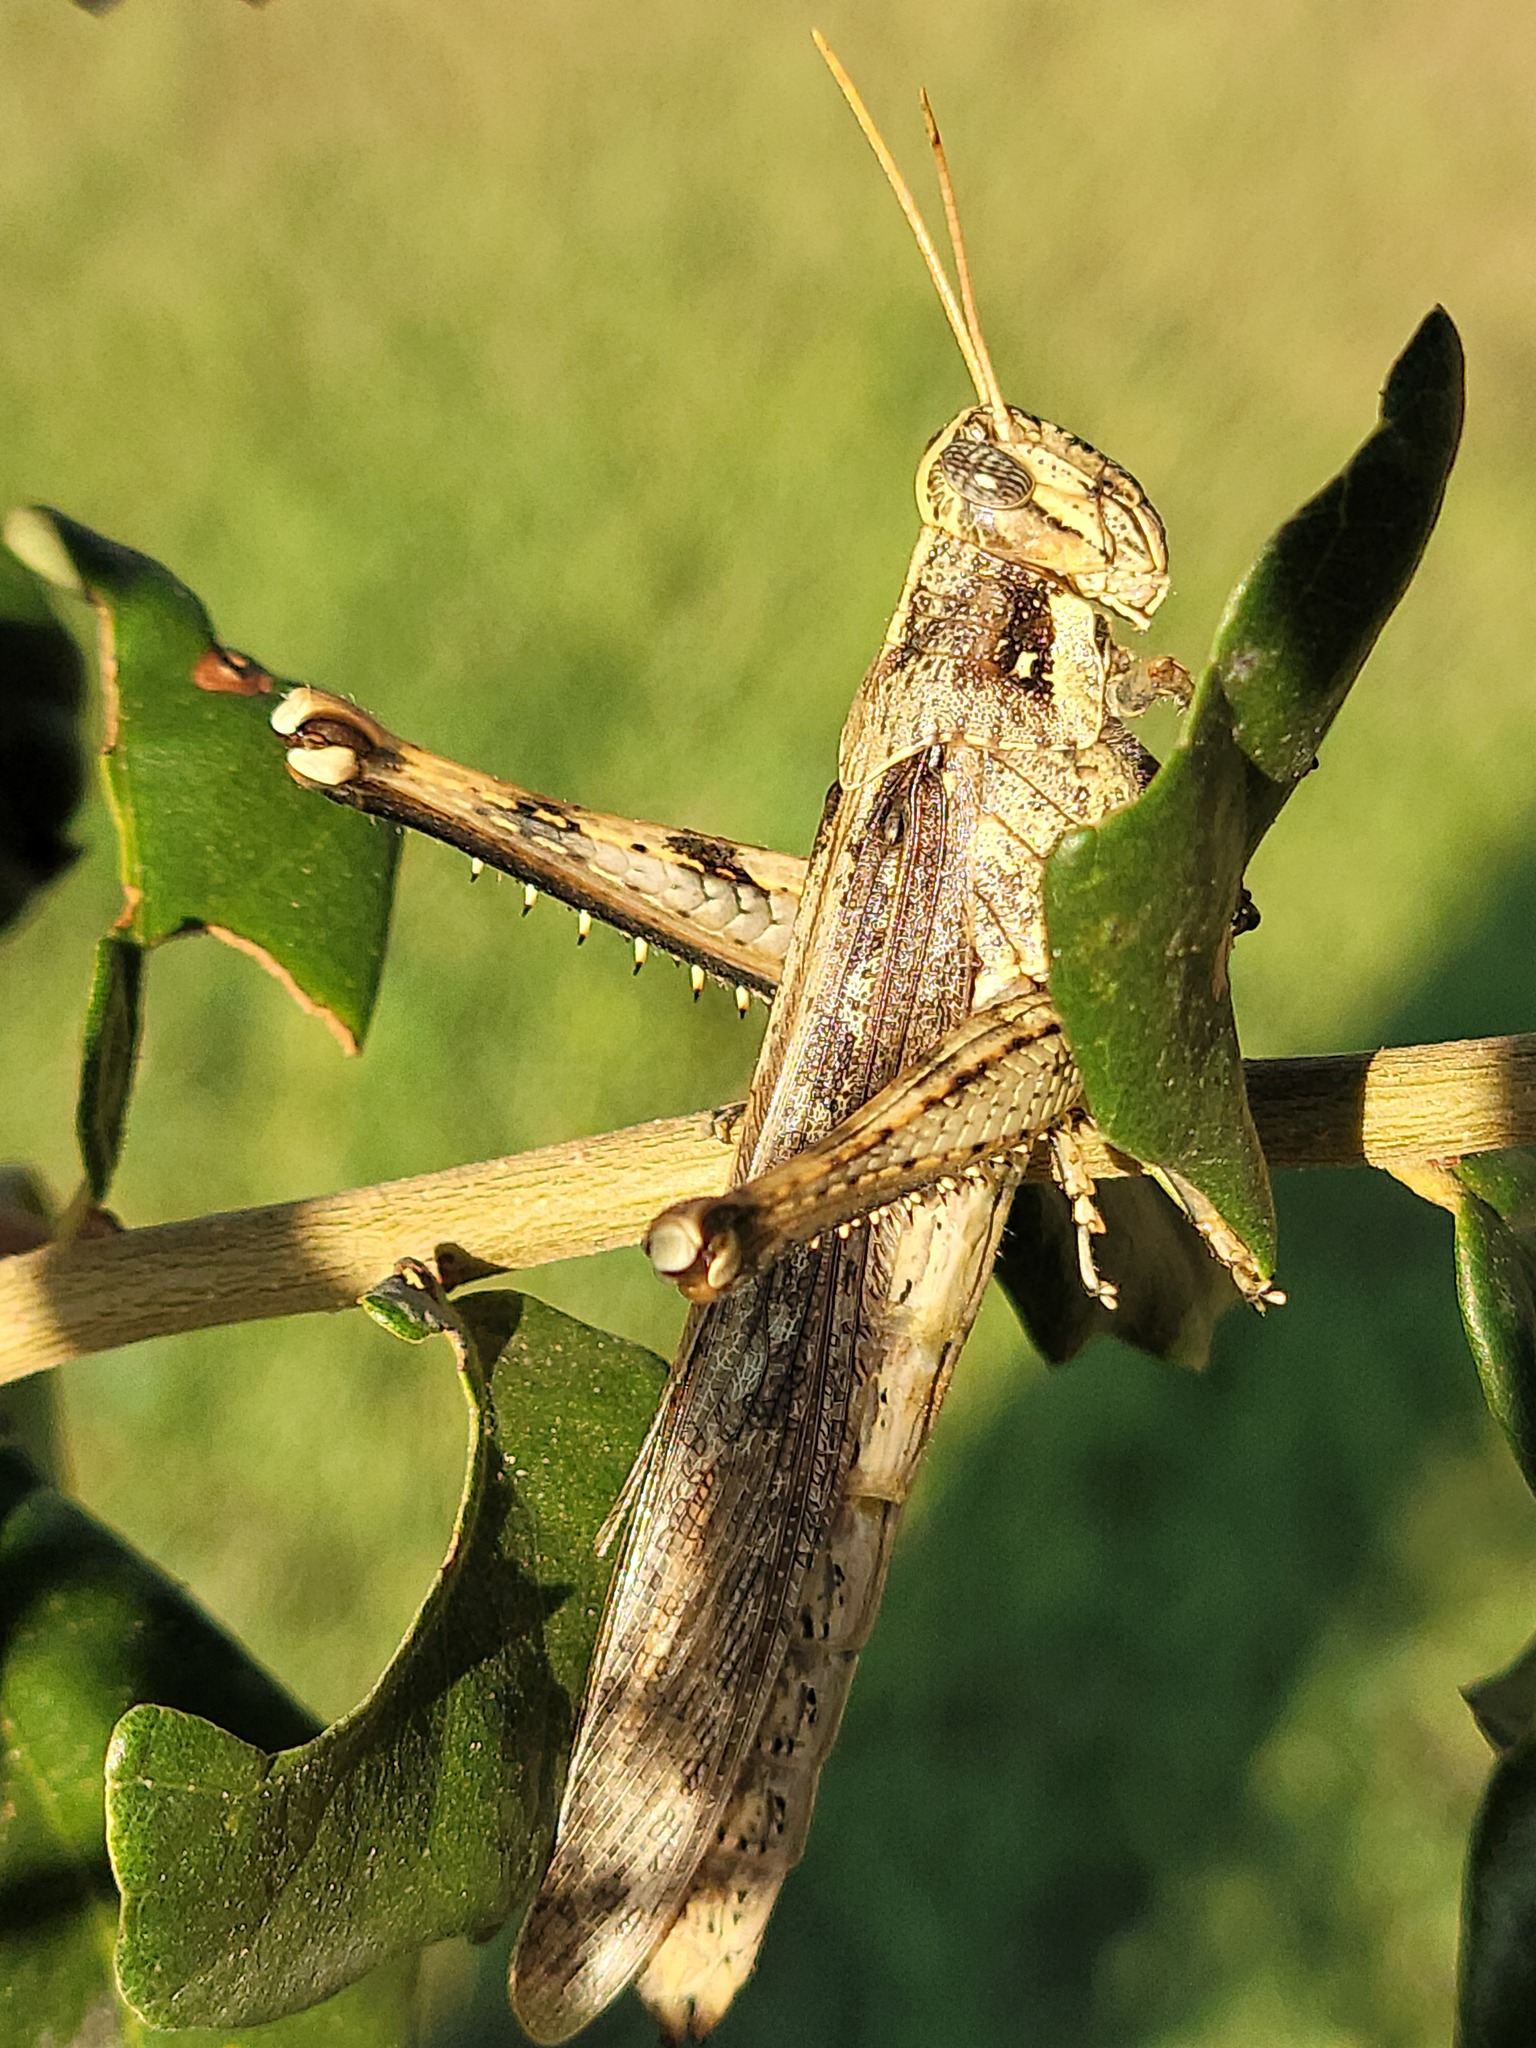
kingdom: Animalia
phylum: Arthropoda
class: Insecta
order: Orthoptera
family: Acrididae
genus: Schistocerca
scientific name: Schistocerca nitens
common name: Vagrant grasshopper
